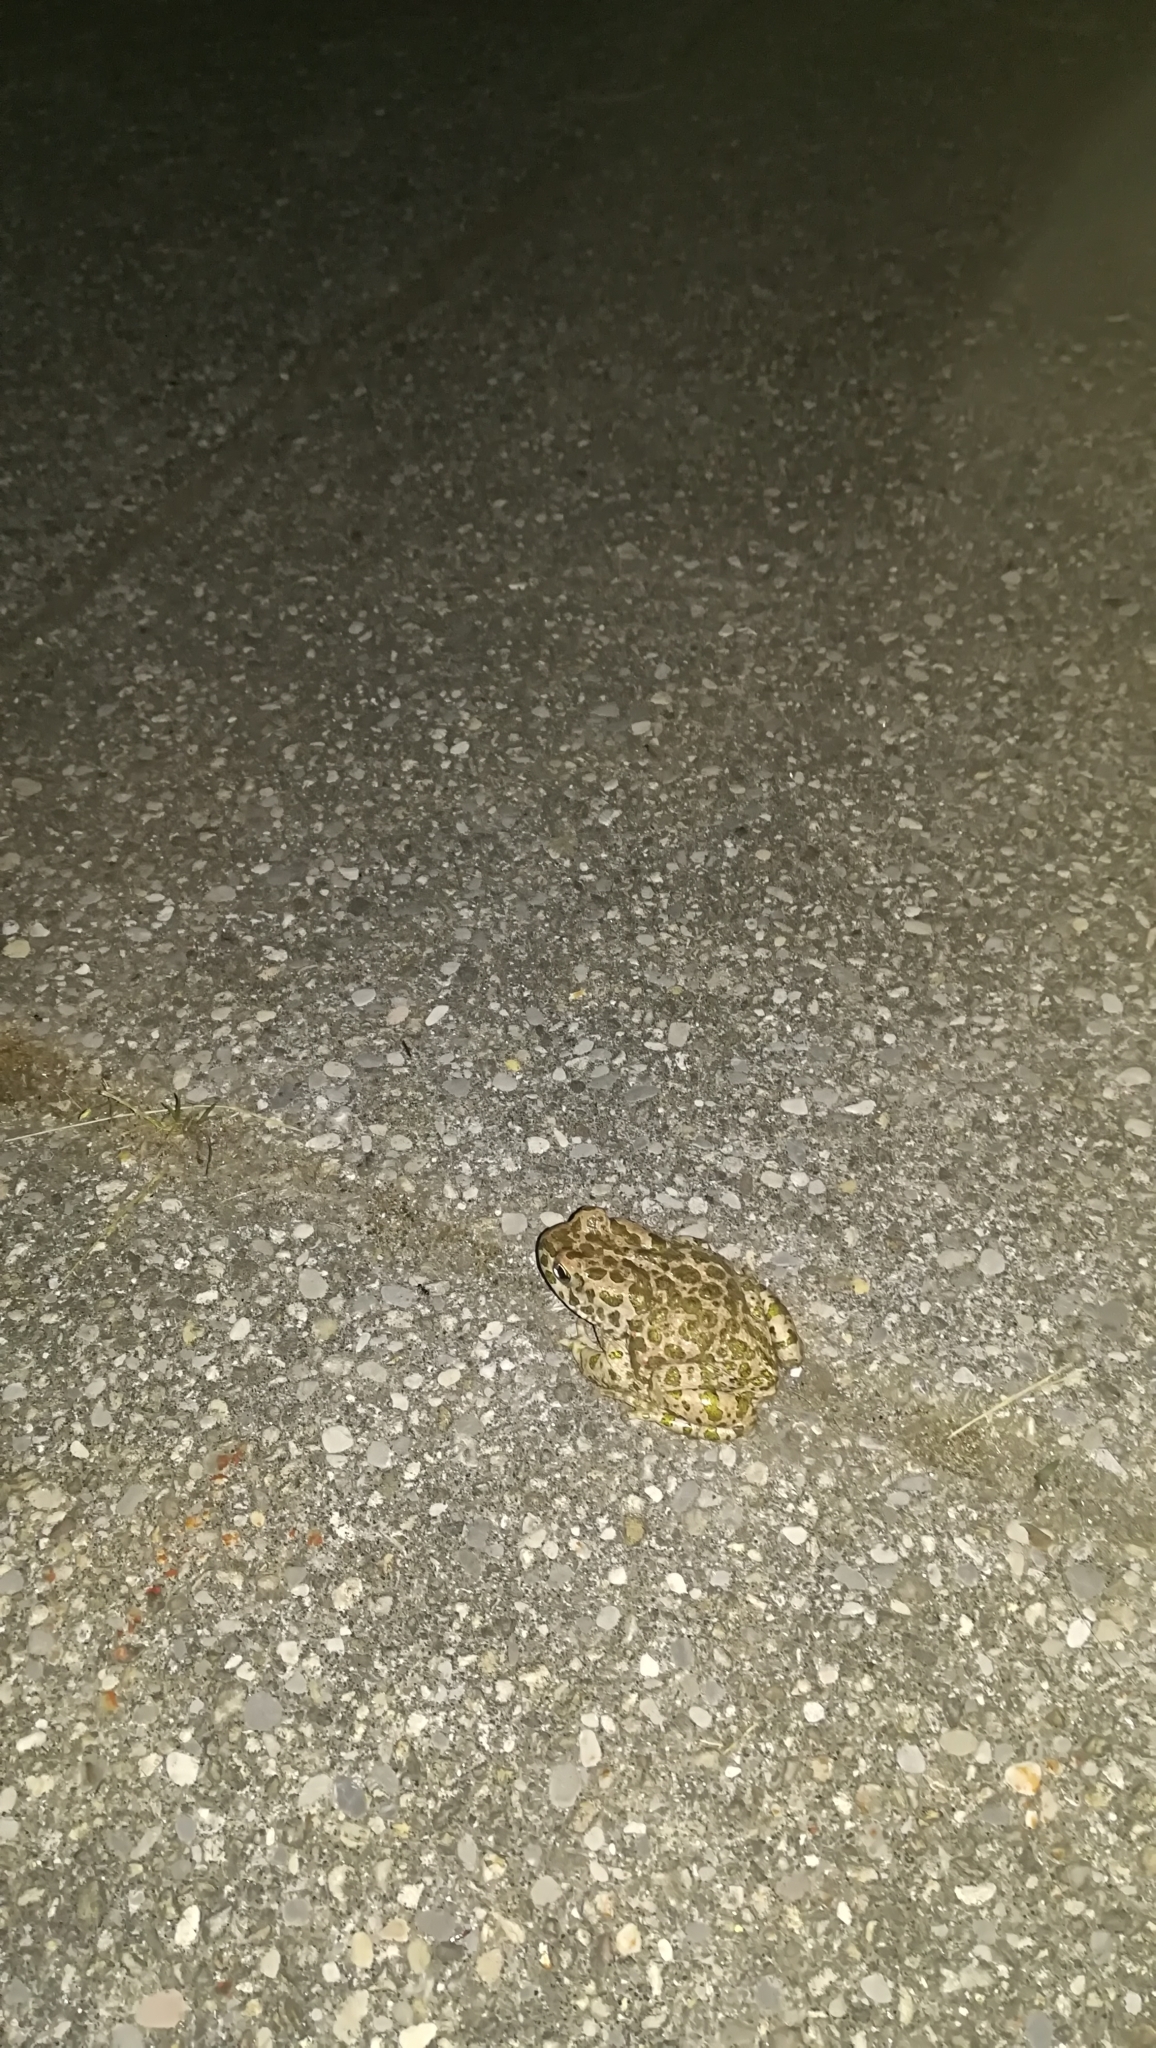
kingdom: Animalia
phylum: Chordata
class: Amphibia
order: Anura
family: Bufonidae
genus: Bufotes
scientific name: Bufotes viridis
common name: European green toad
